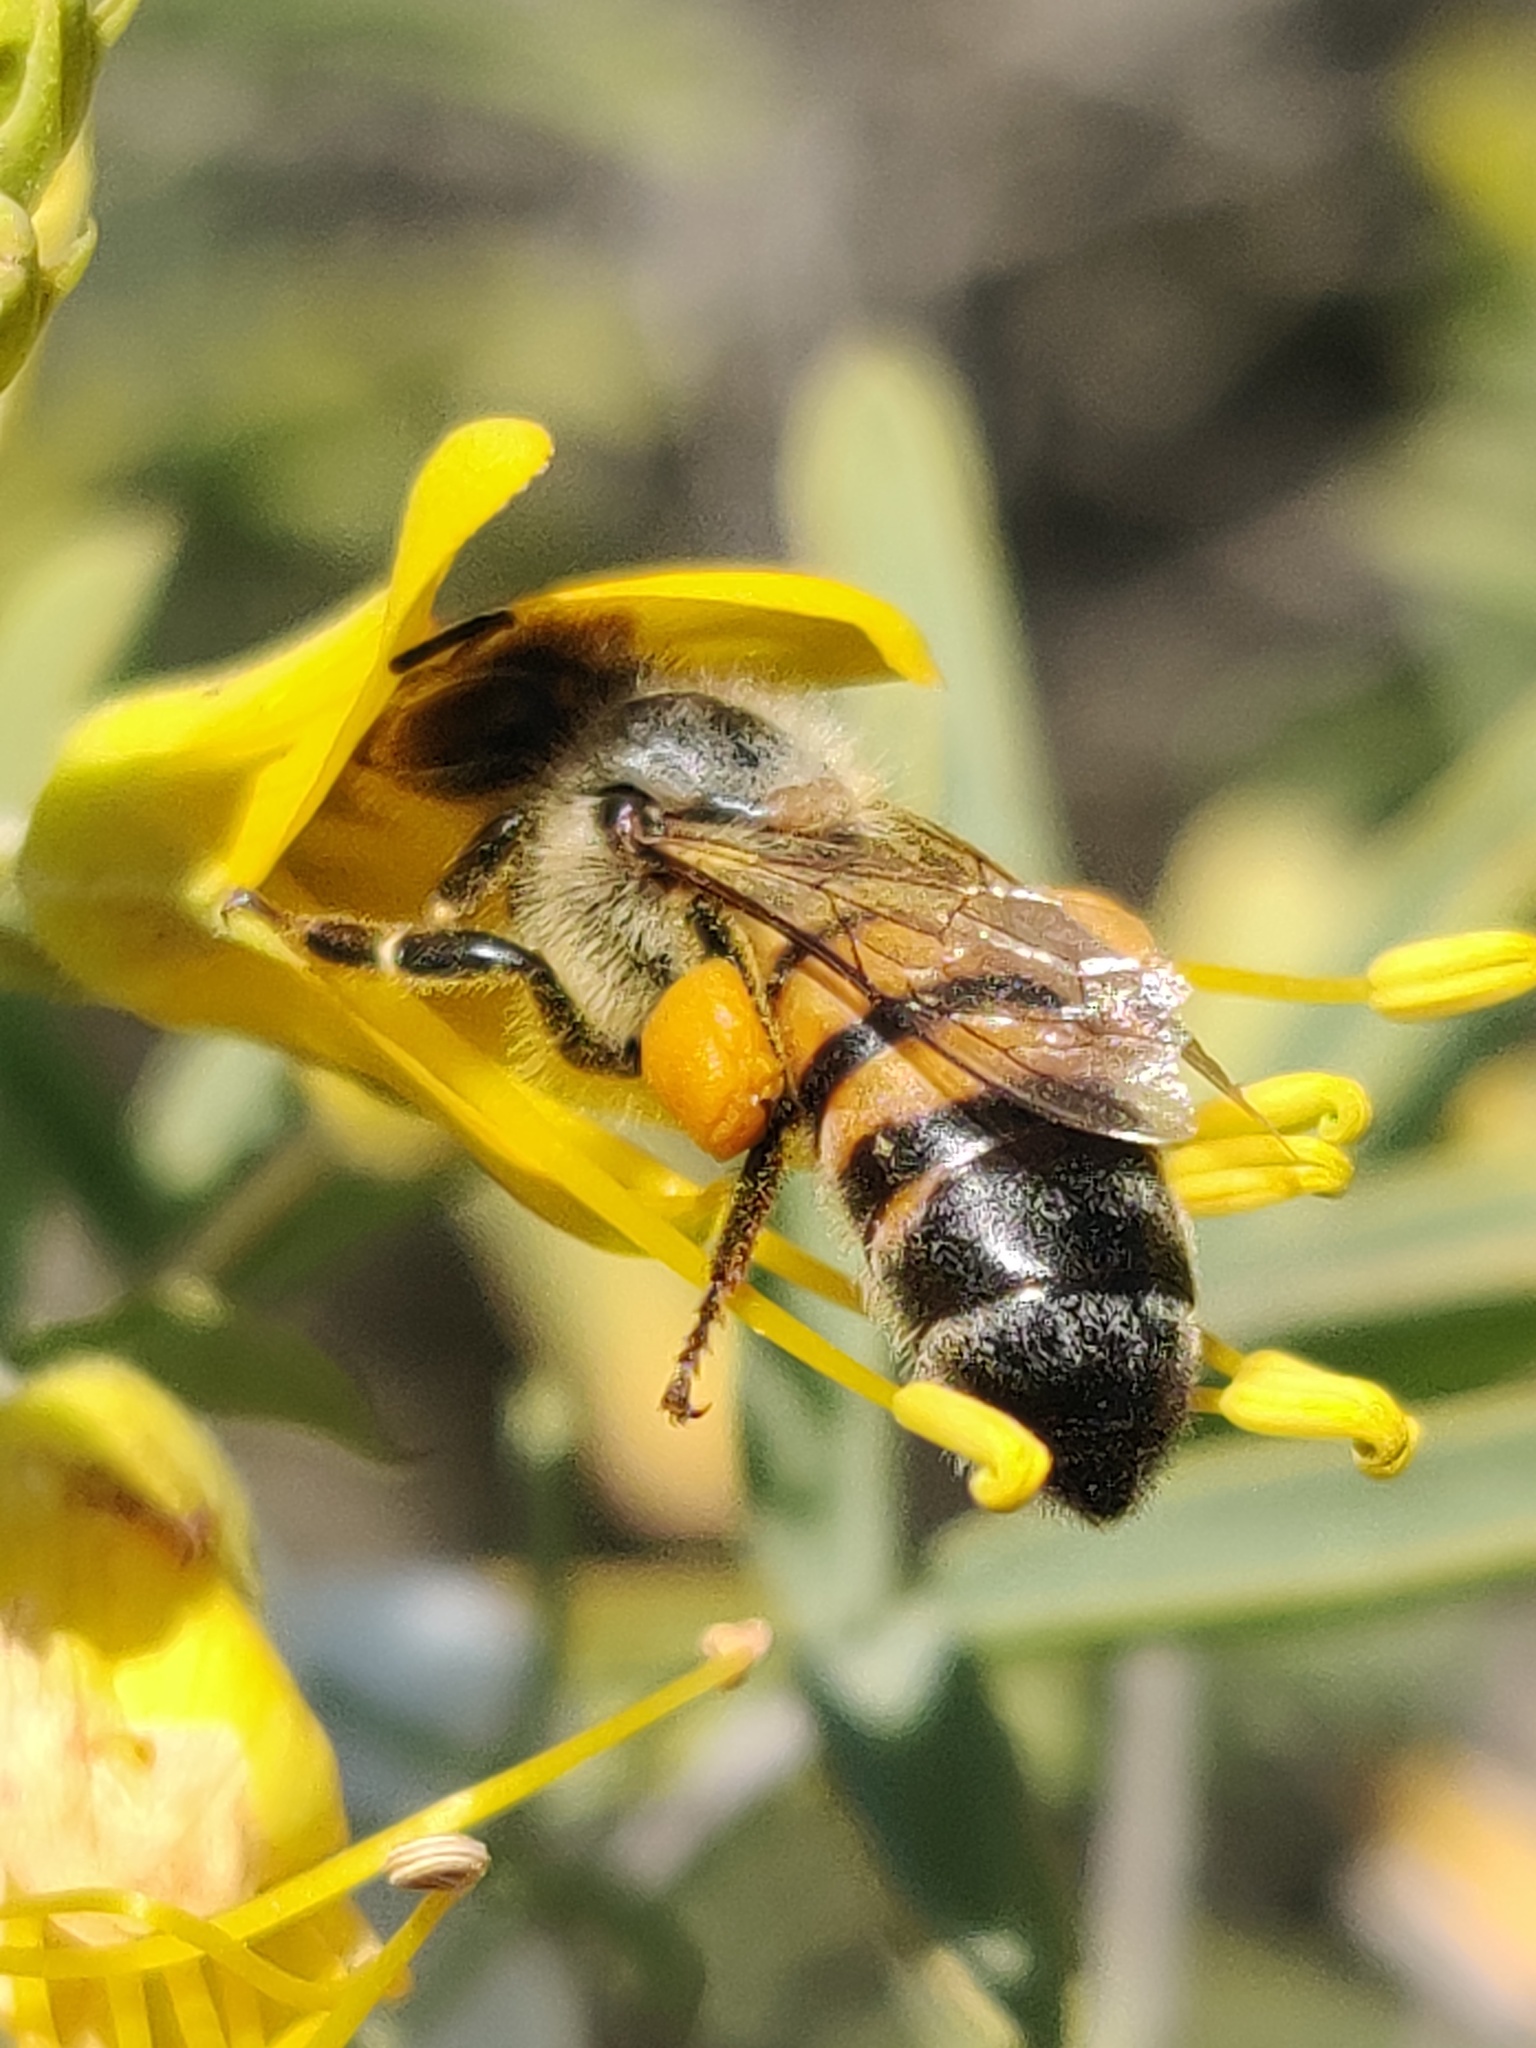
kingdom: Animalia
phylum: Arthropoda
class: Insecta
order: Hymenoptera
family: Apidae
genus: Apis
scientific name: Apis mellifera
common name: Honey bee
